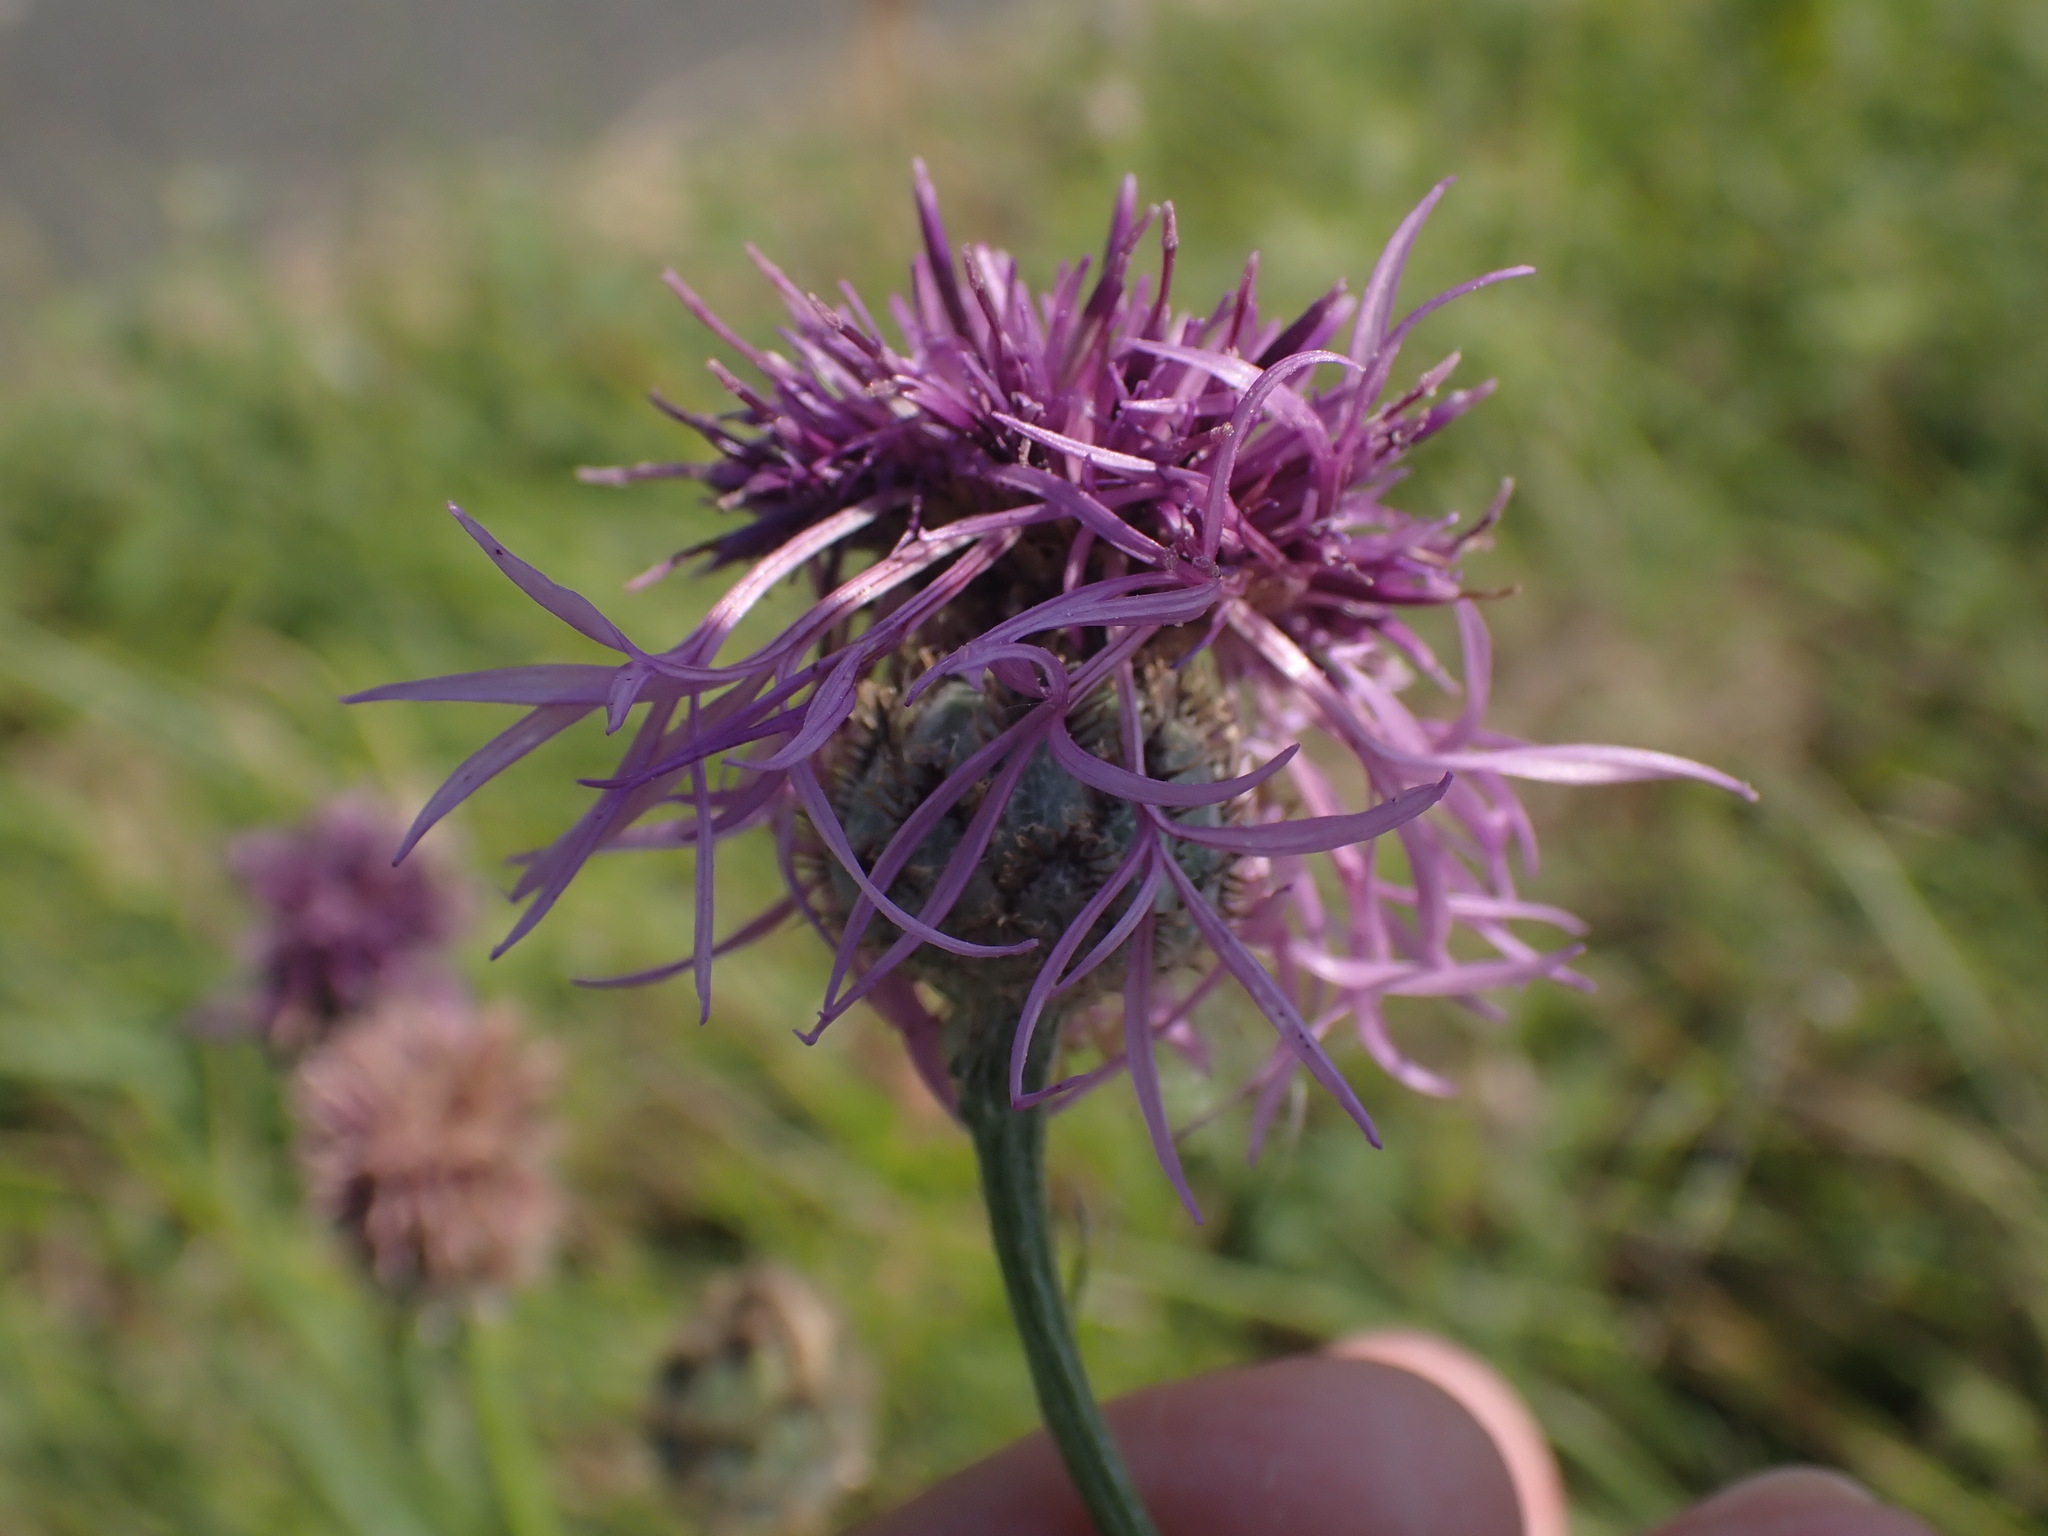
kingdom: Plantae
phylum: Tracheophyta
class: Magnoliopsida
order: Asterales
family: Asteraceae
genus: Centaurea
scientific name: Centaurea scabiosa
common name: Greater knapweed
